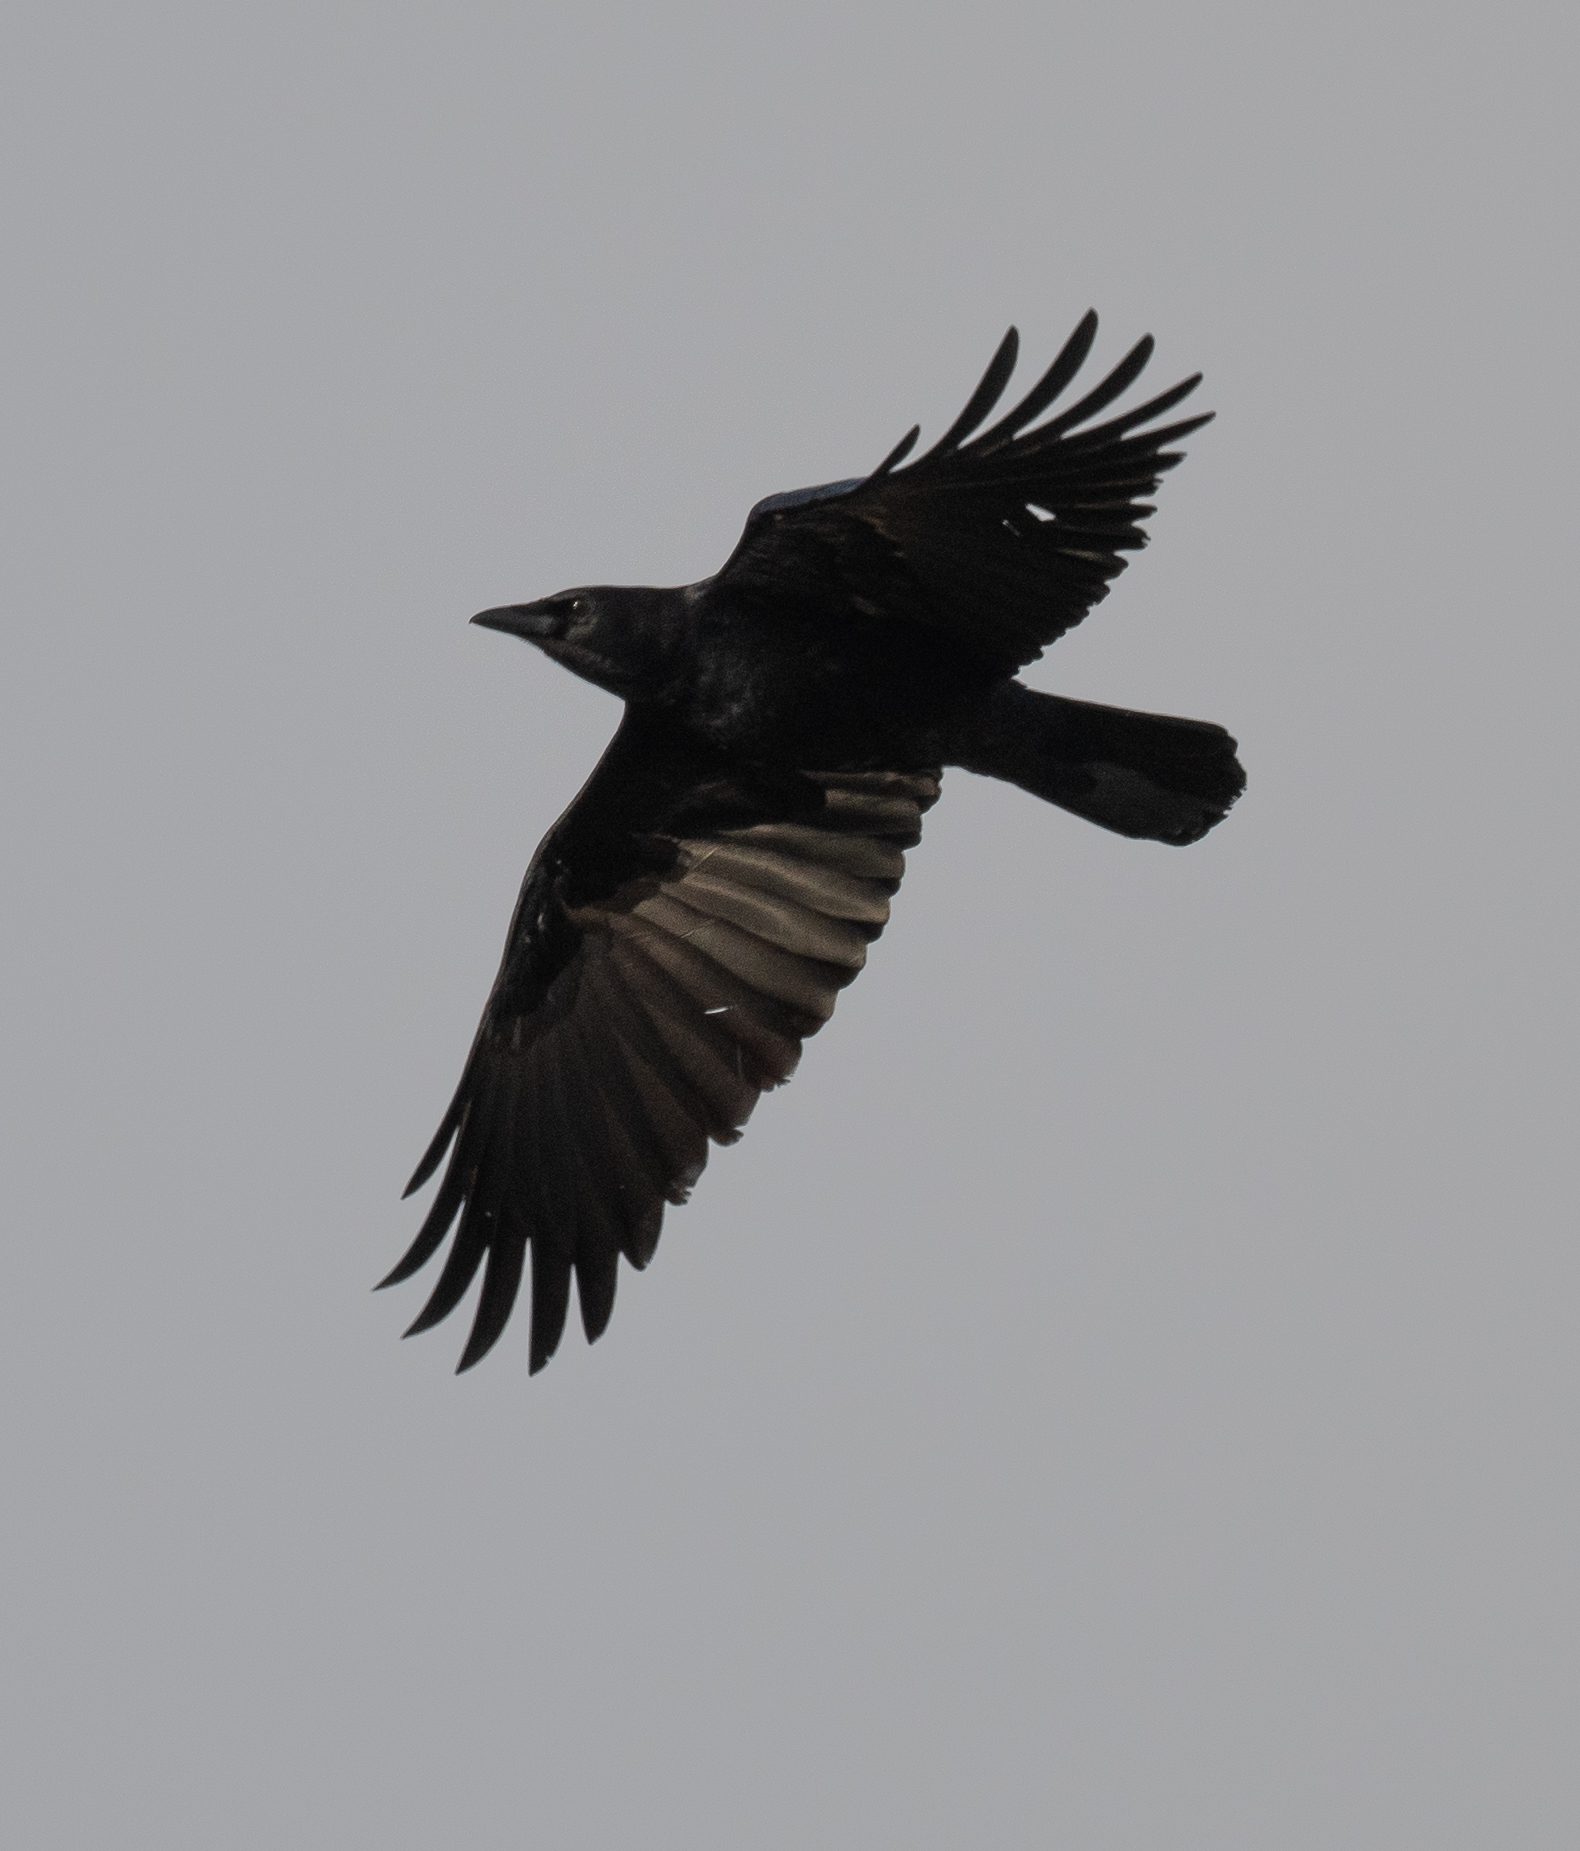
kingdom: Animalia
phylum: Chordata
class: Aves
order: Passeriformes
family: Corvidae
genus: Corvus
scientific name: Corvus brachyrhynchos
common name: American crow
